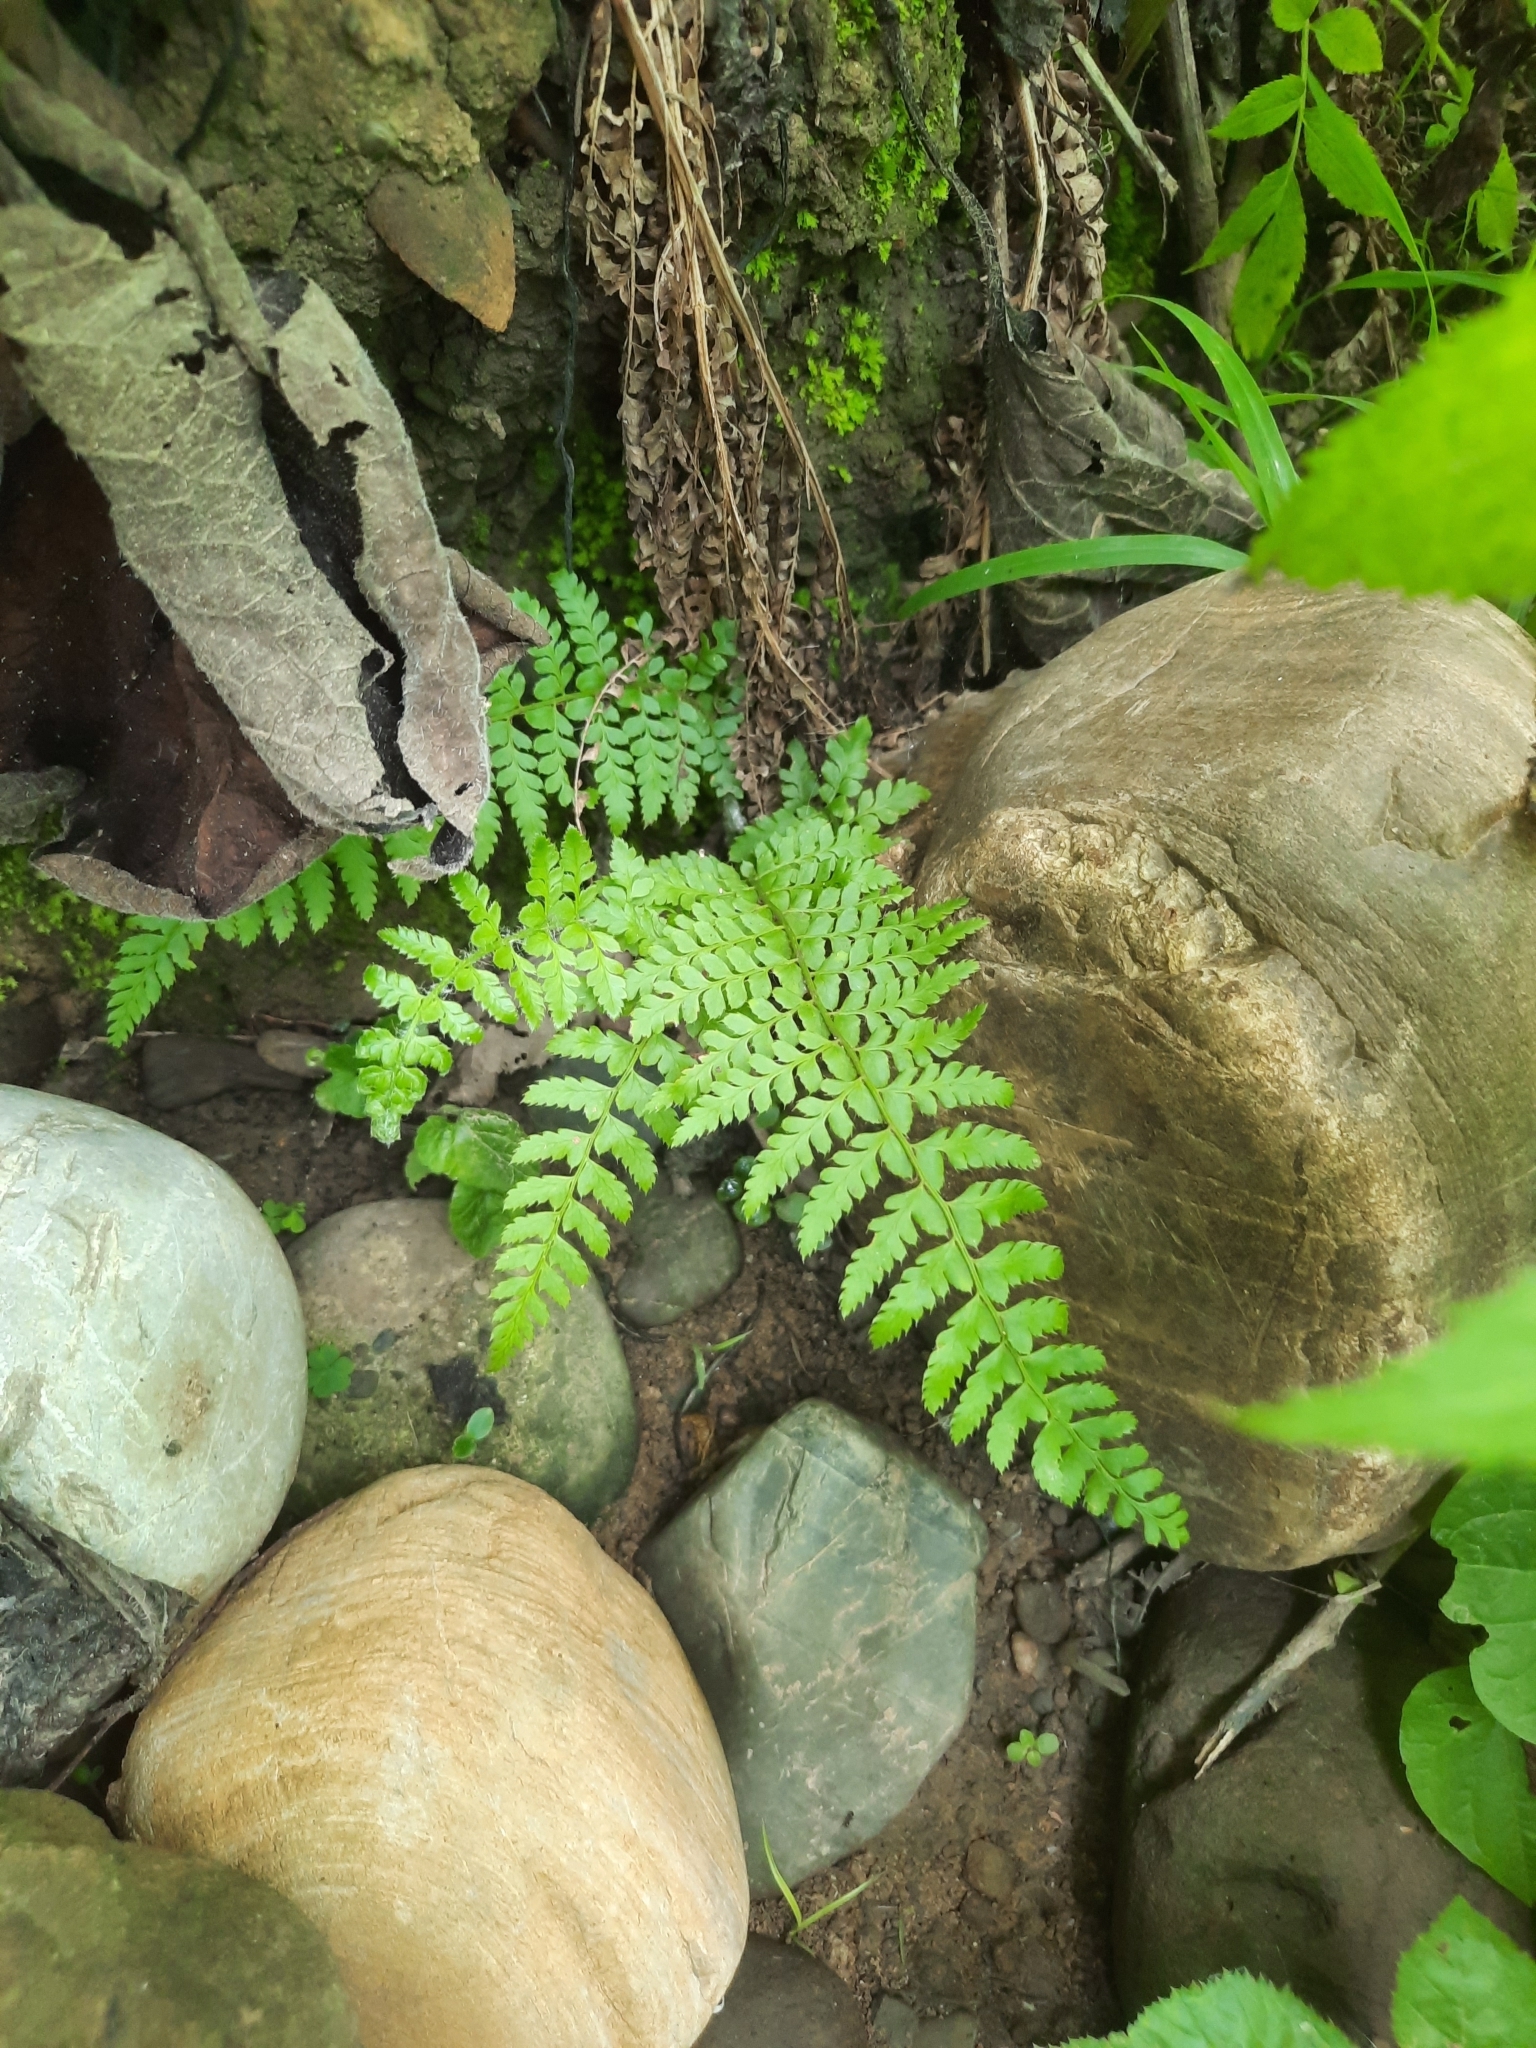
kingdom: Plantae
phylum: Tracheophyta
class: Polypodiopsida
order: Polypodiales
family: Dryopteridaceae
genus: Polystichum
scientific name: Polystichum setiferum
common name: Soft shield-fern
